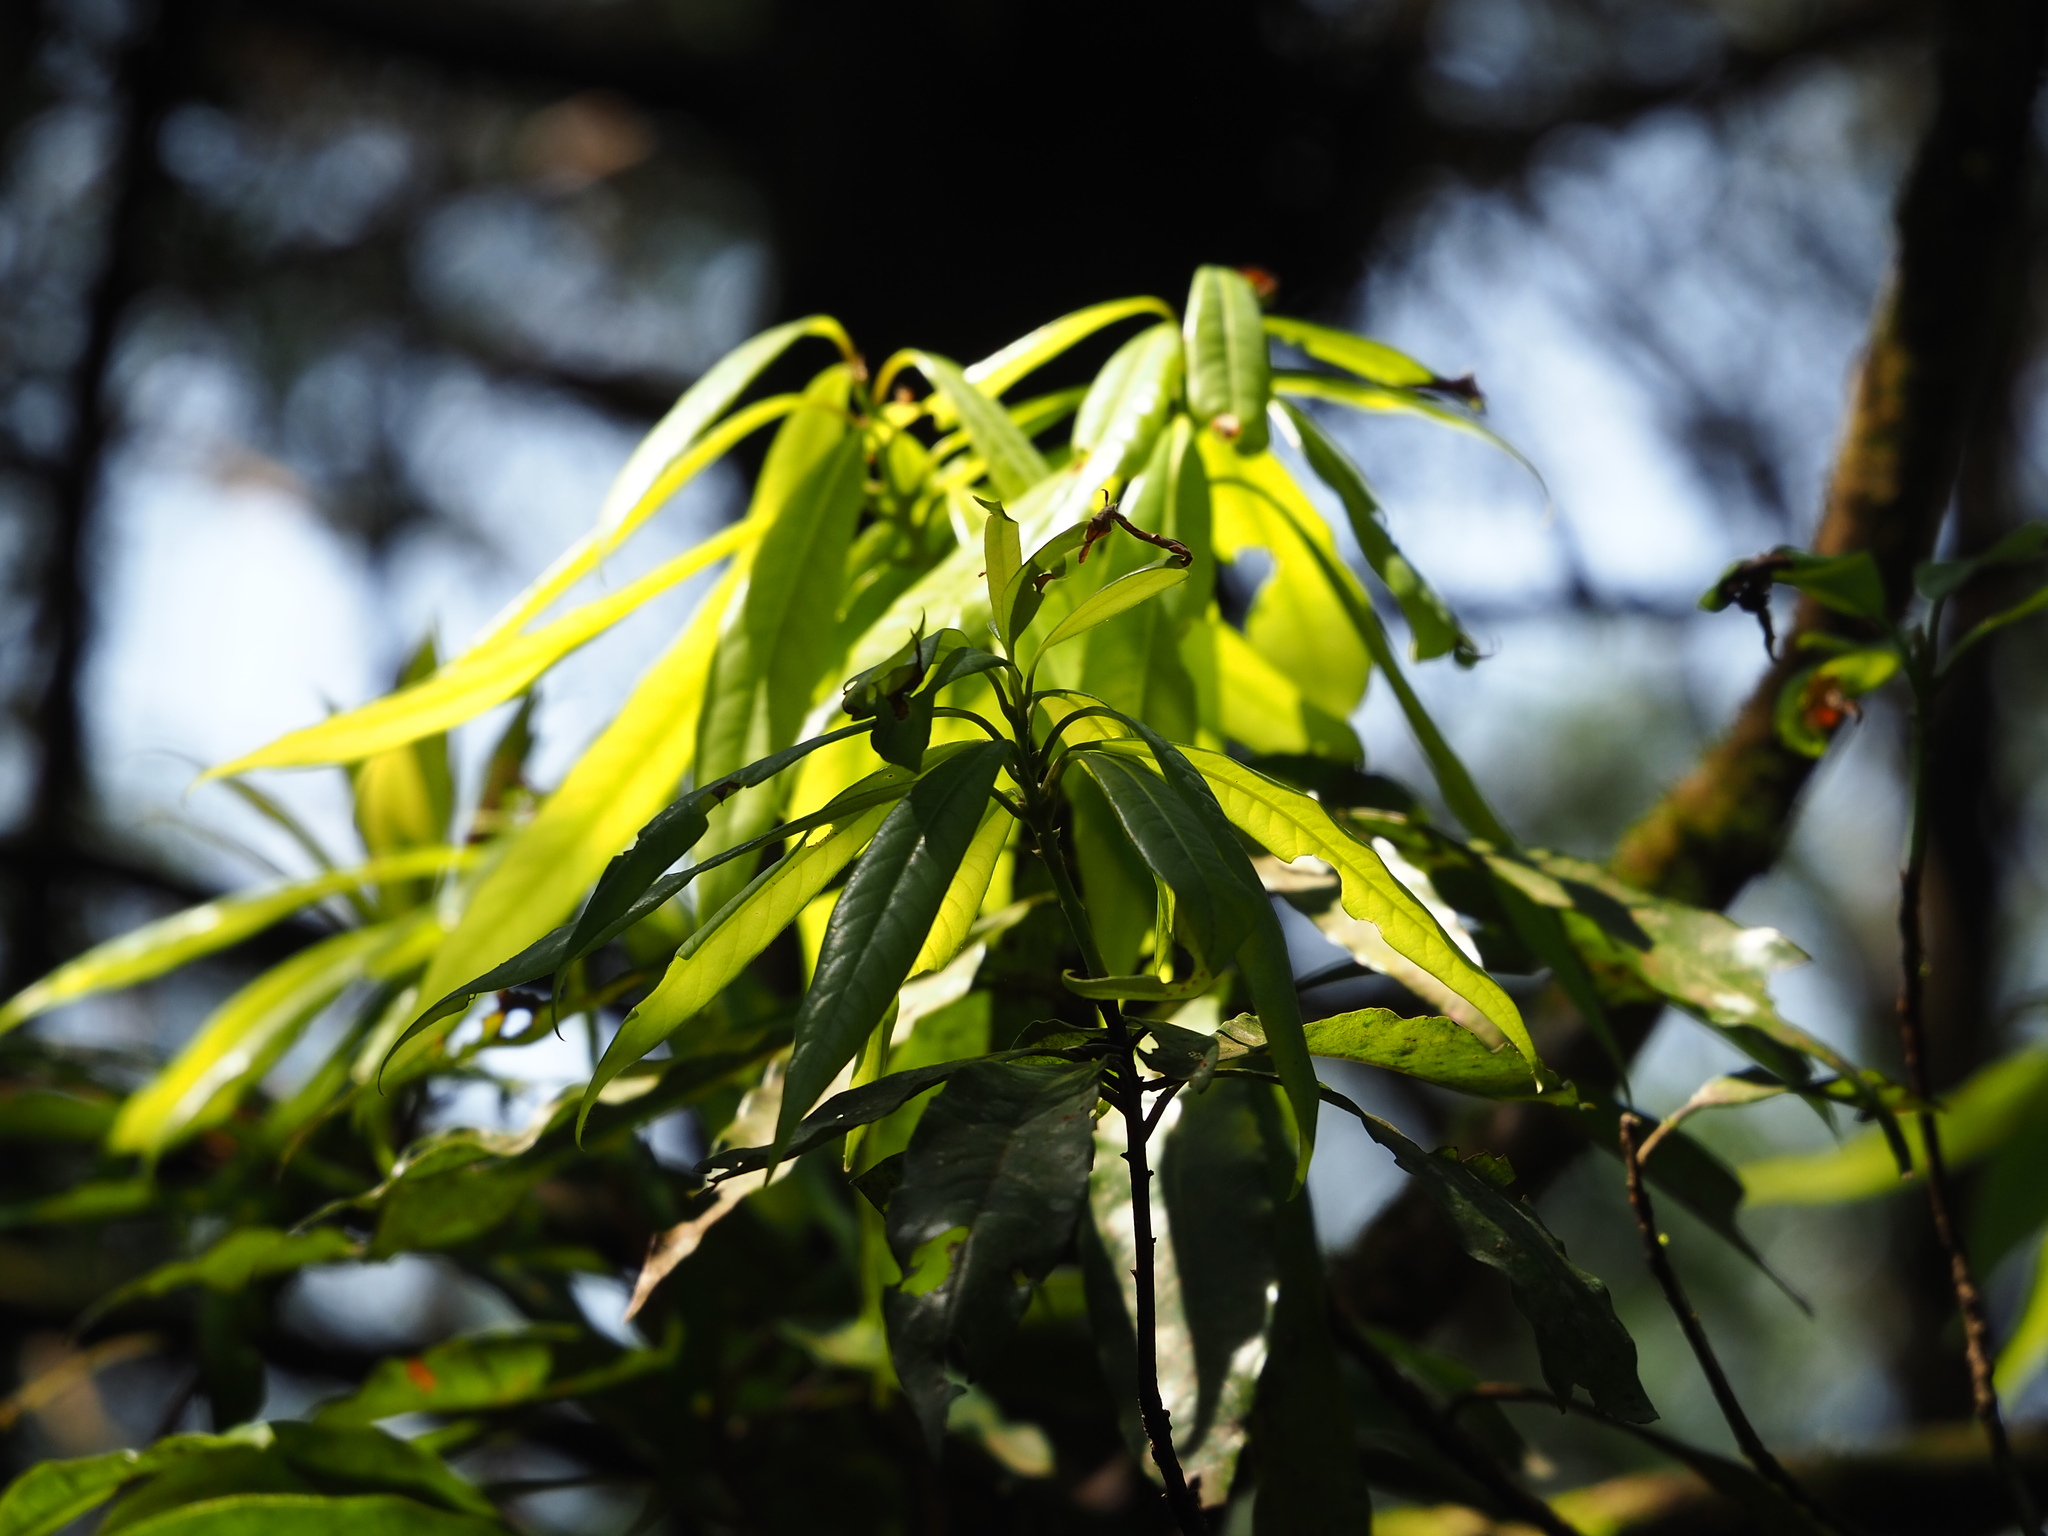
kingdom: Plantae
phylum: Tracheophyta
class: Magnoliopsida
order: Laurales
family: Lauraceae
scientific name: Lauraceae
